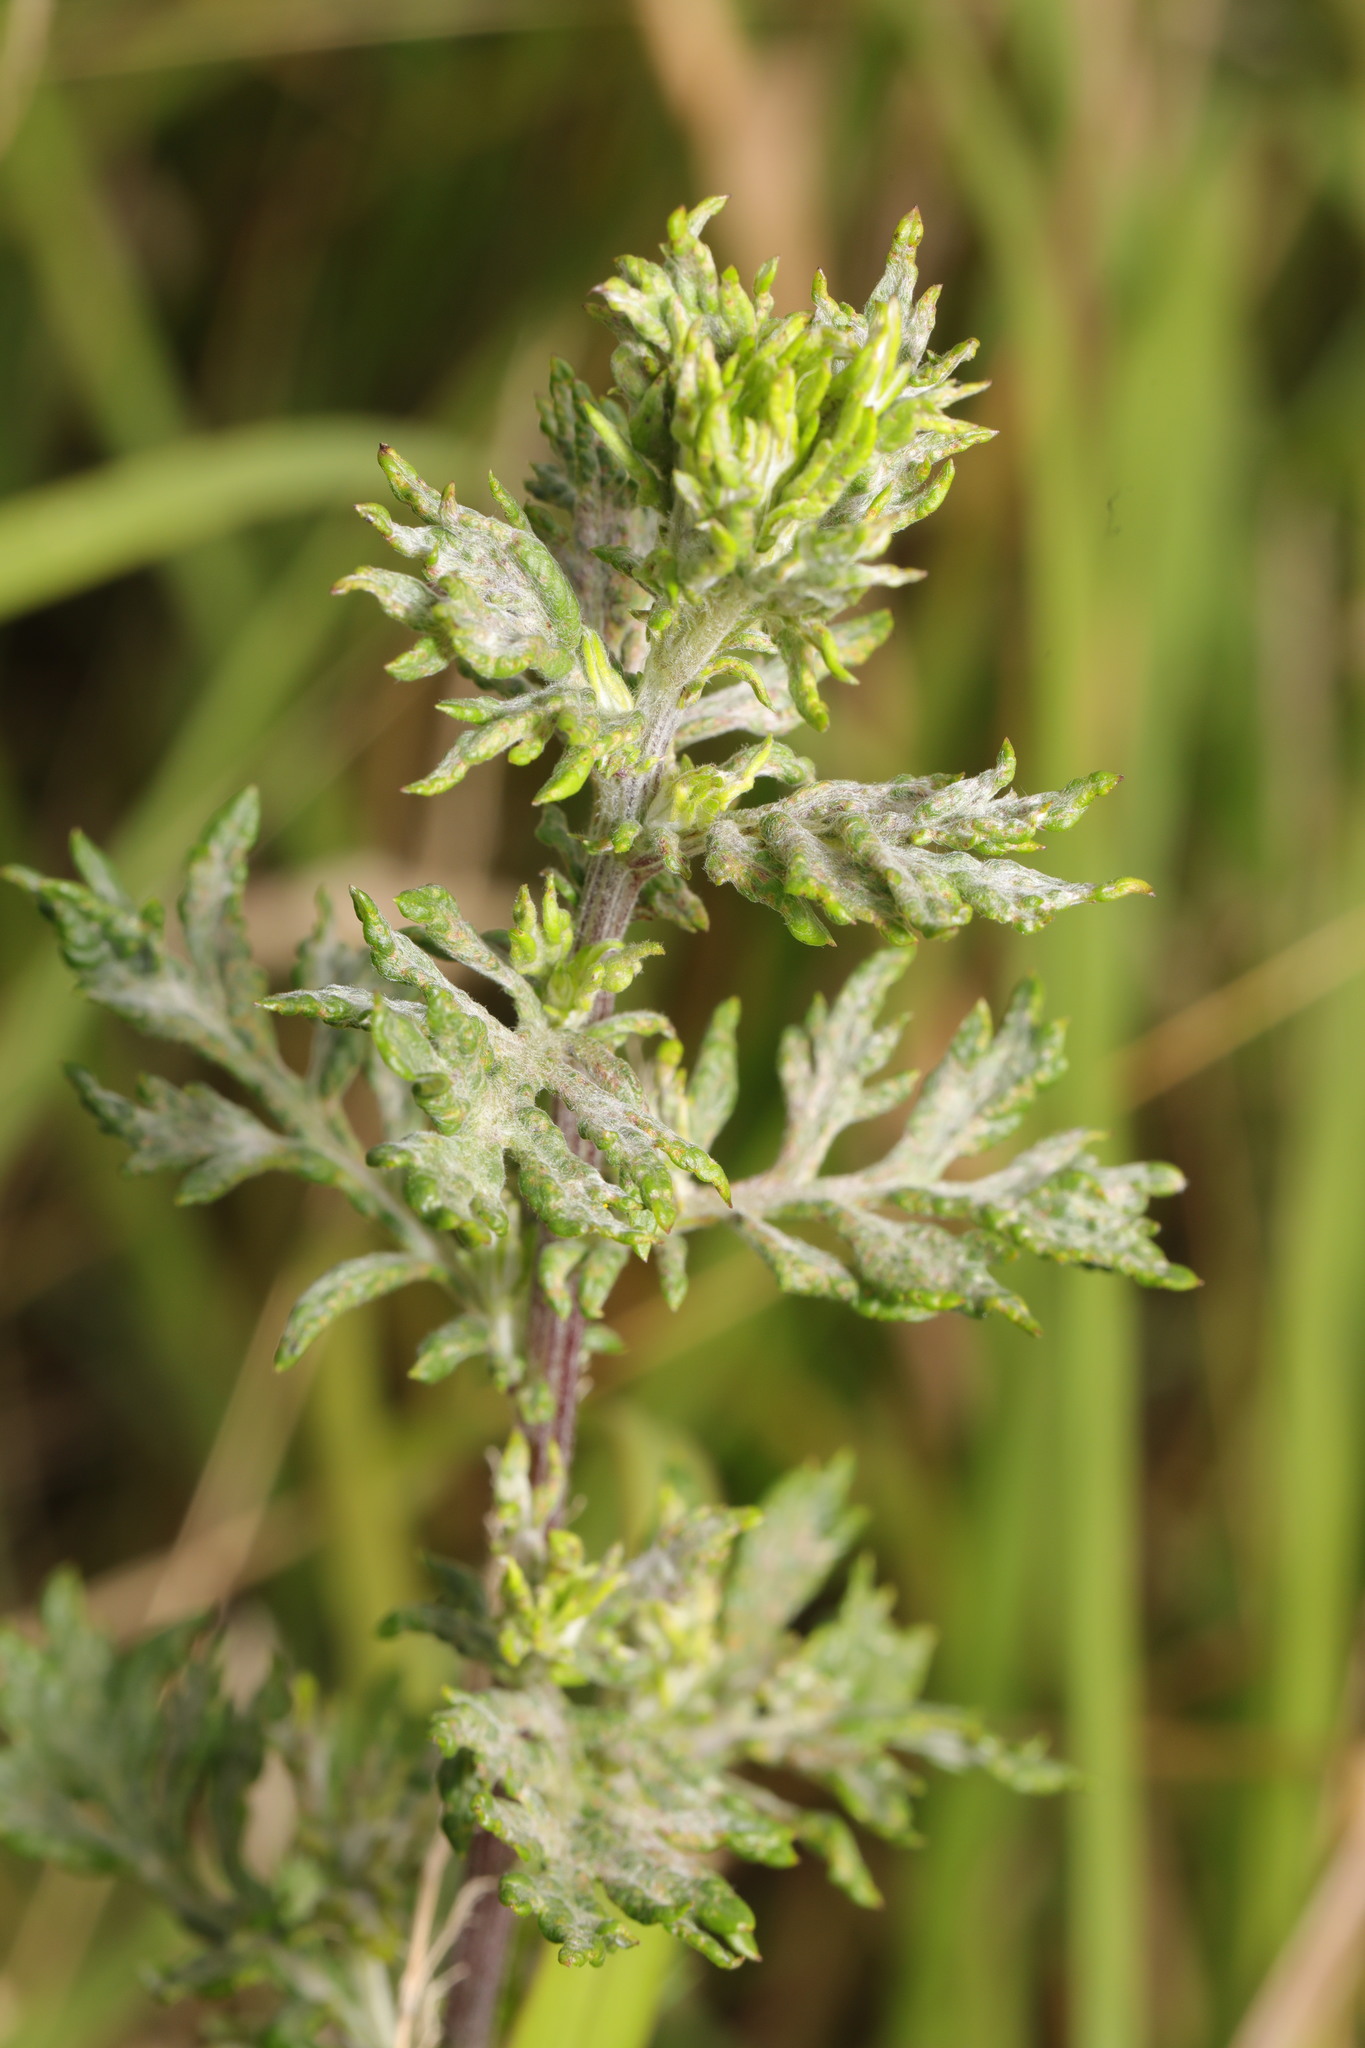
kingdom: Fungi
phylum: Ascomycota
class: Leotiomycetes
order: Helotiales
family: Erysiphaceae
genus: Golovinomyces
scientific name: Golovinomyces artemisiae
